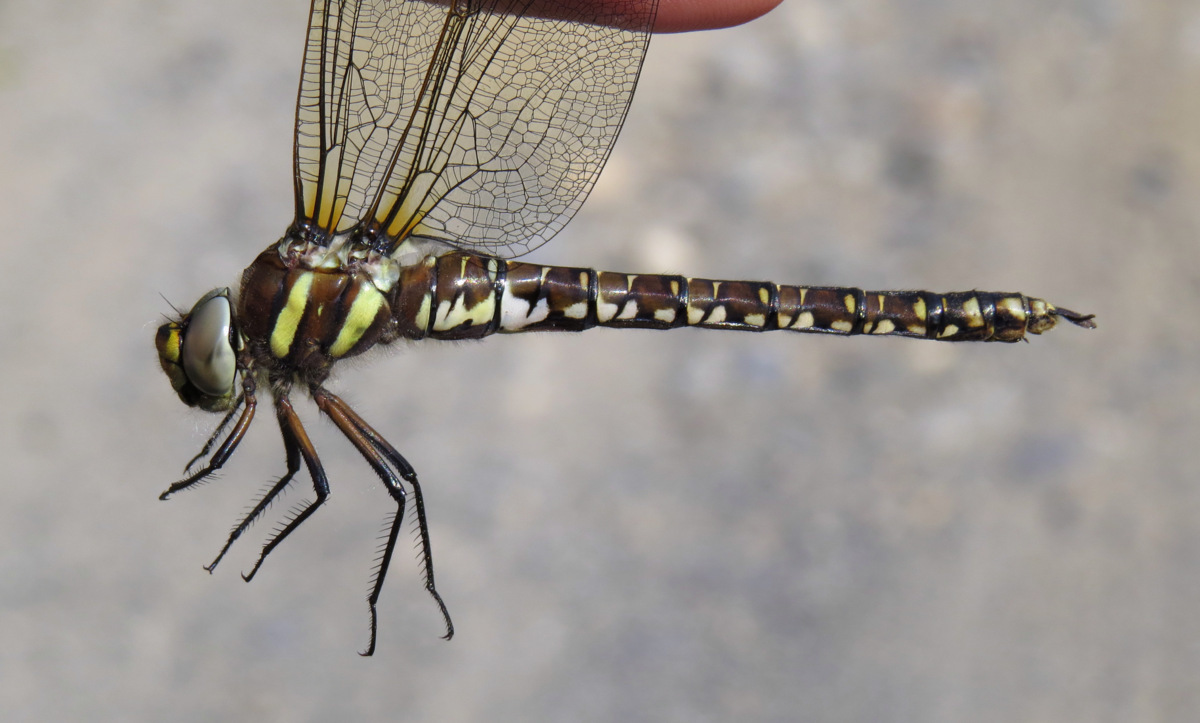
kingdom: Animalia
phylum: Arthropoda
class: Insecta
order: Odonata
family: Aeshnidae
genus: Aeshna
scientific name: Aeshna juncea
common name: Moorland hawker
